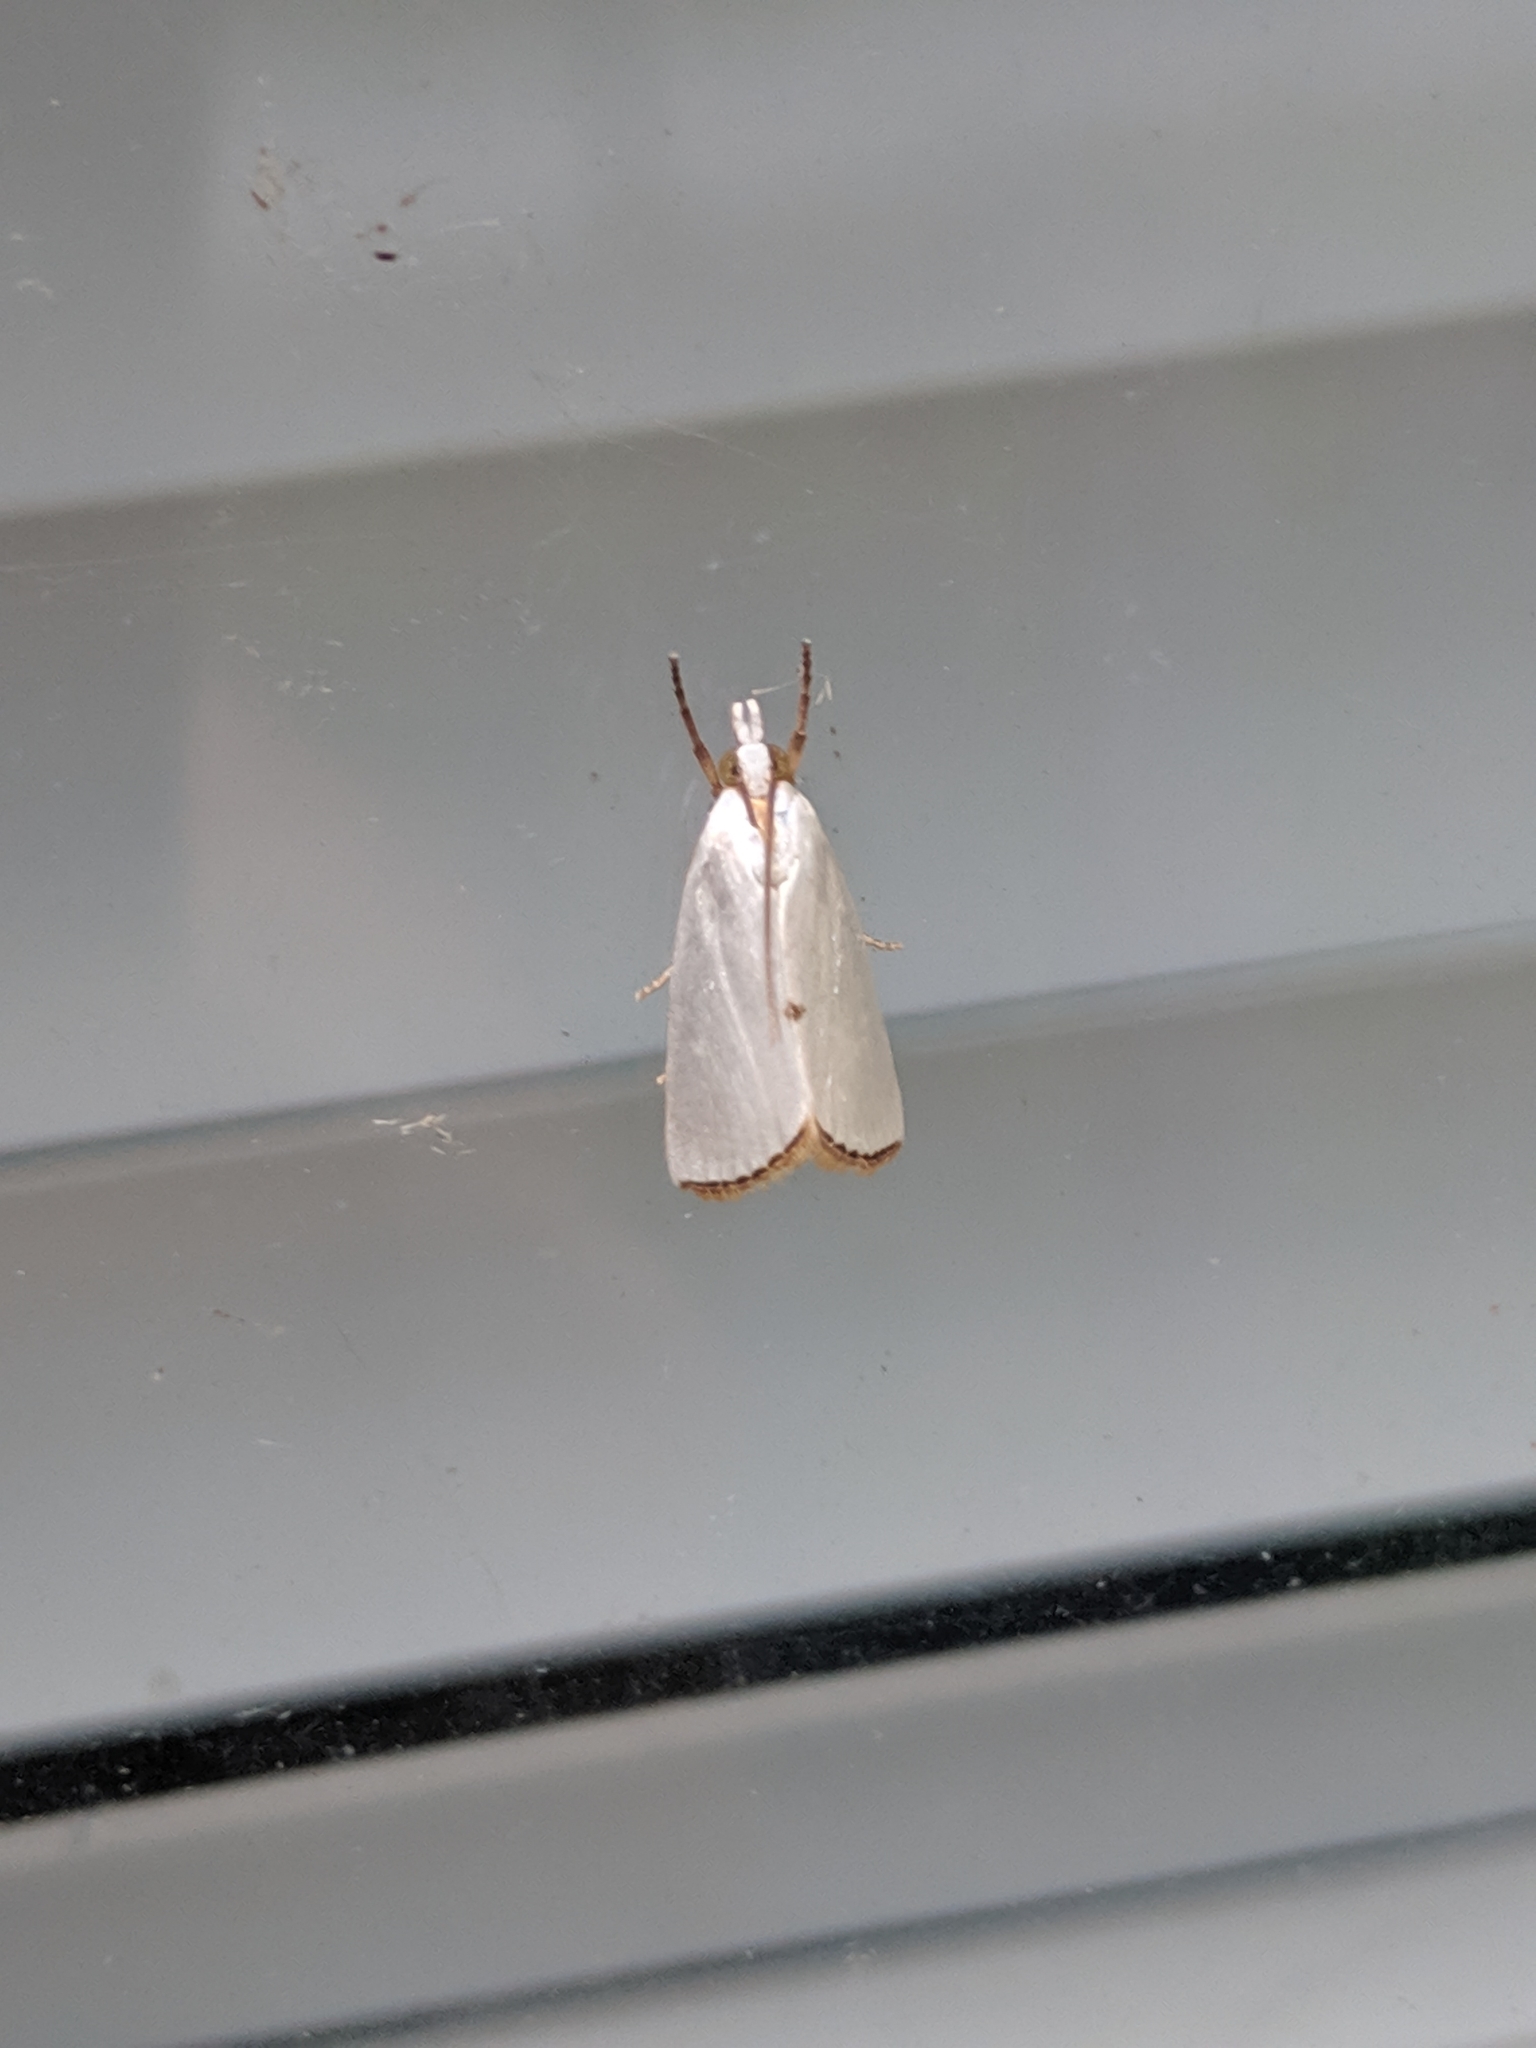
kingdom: Animalia
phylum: Arthropoda
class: Insecta
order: Lepidoptera
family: Crambidae
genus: Argyria
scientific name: Argyria nivalis
